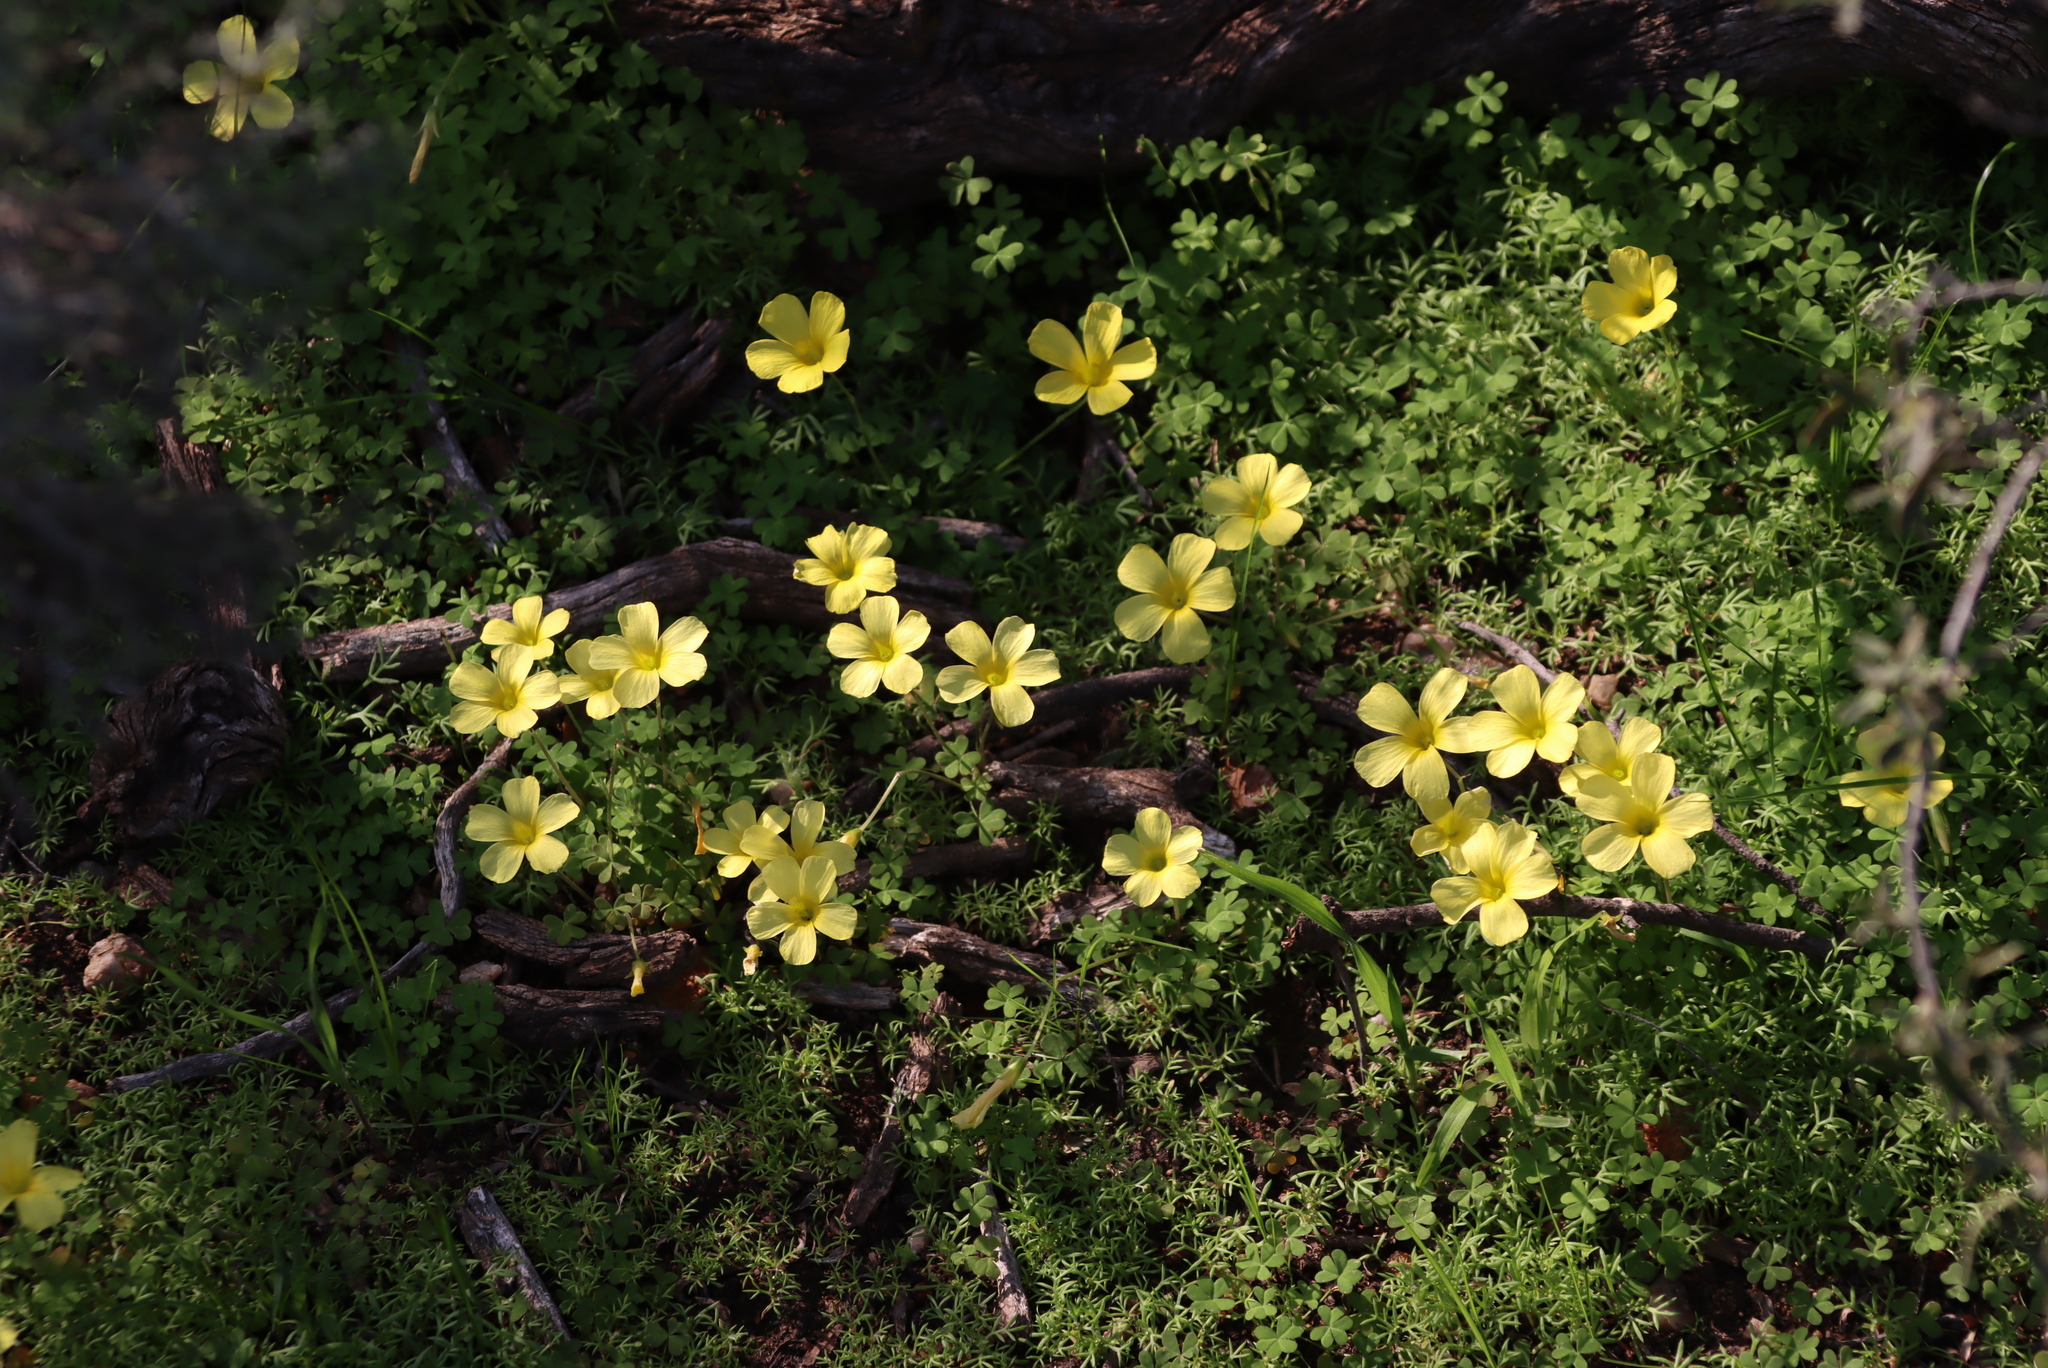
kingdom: Plantae
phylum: Tracheophyta
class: Magnoliopsida
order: Oxalidales
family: Oxalidaceae
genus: Oxalis
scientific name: Oxalis obtusa
